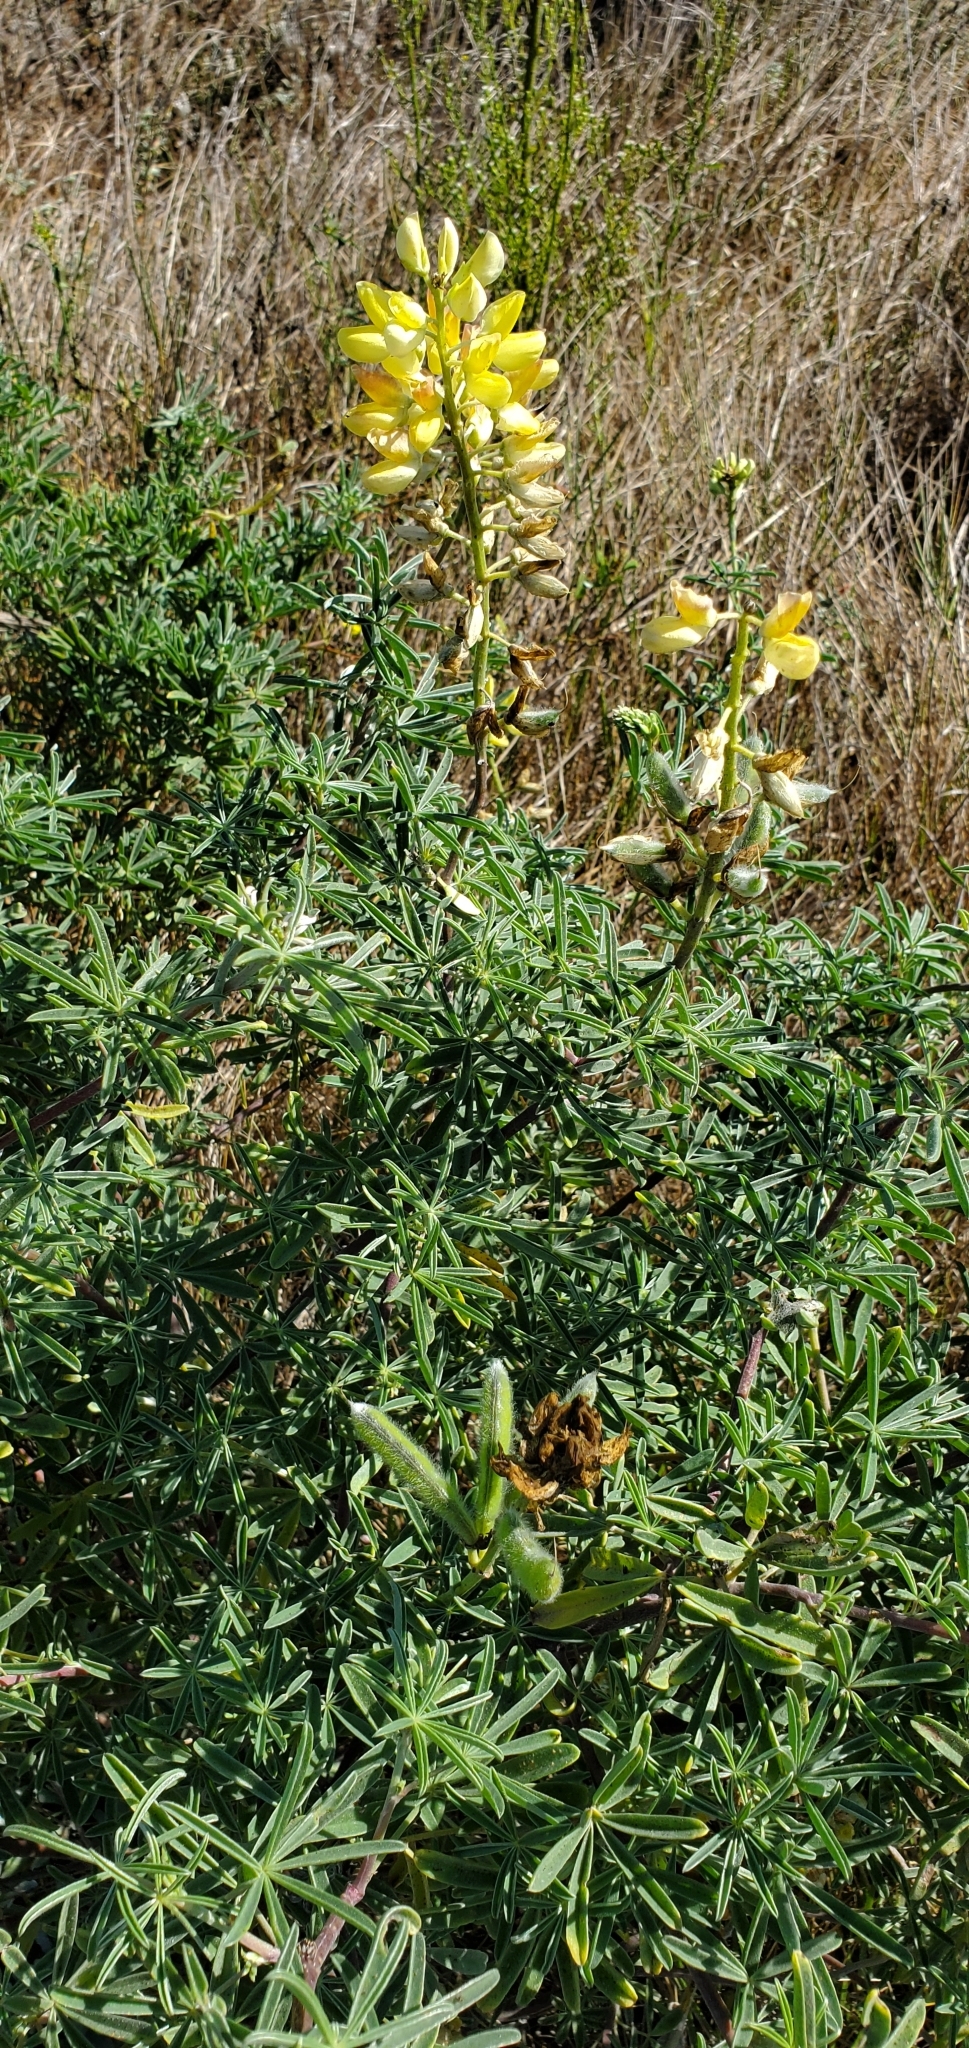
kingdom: Plantae
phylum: Tracheophyta
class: Magnoliopsida
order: Fabales
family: Fabaceae
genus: Lupinus
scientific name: Lupinus arboreus
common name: Yellow bush lupine
